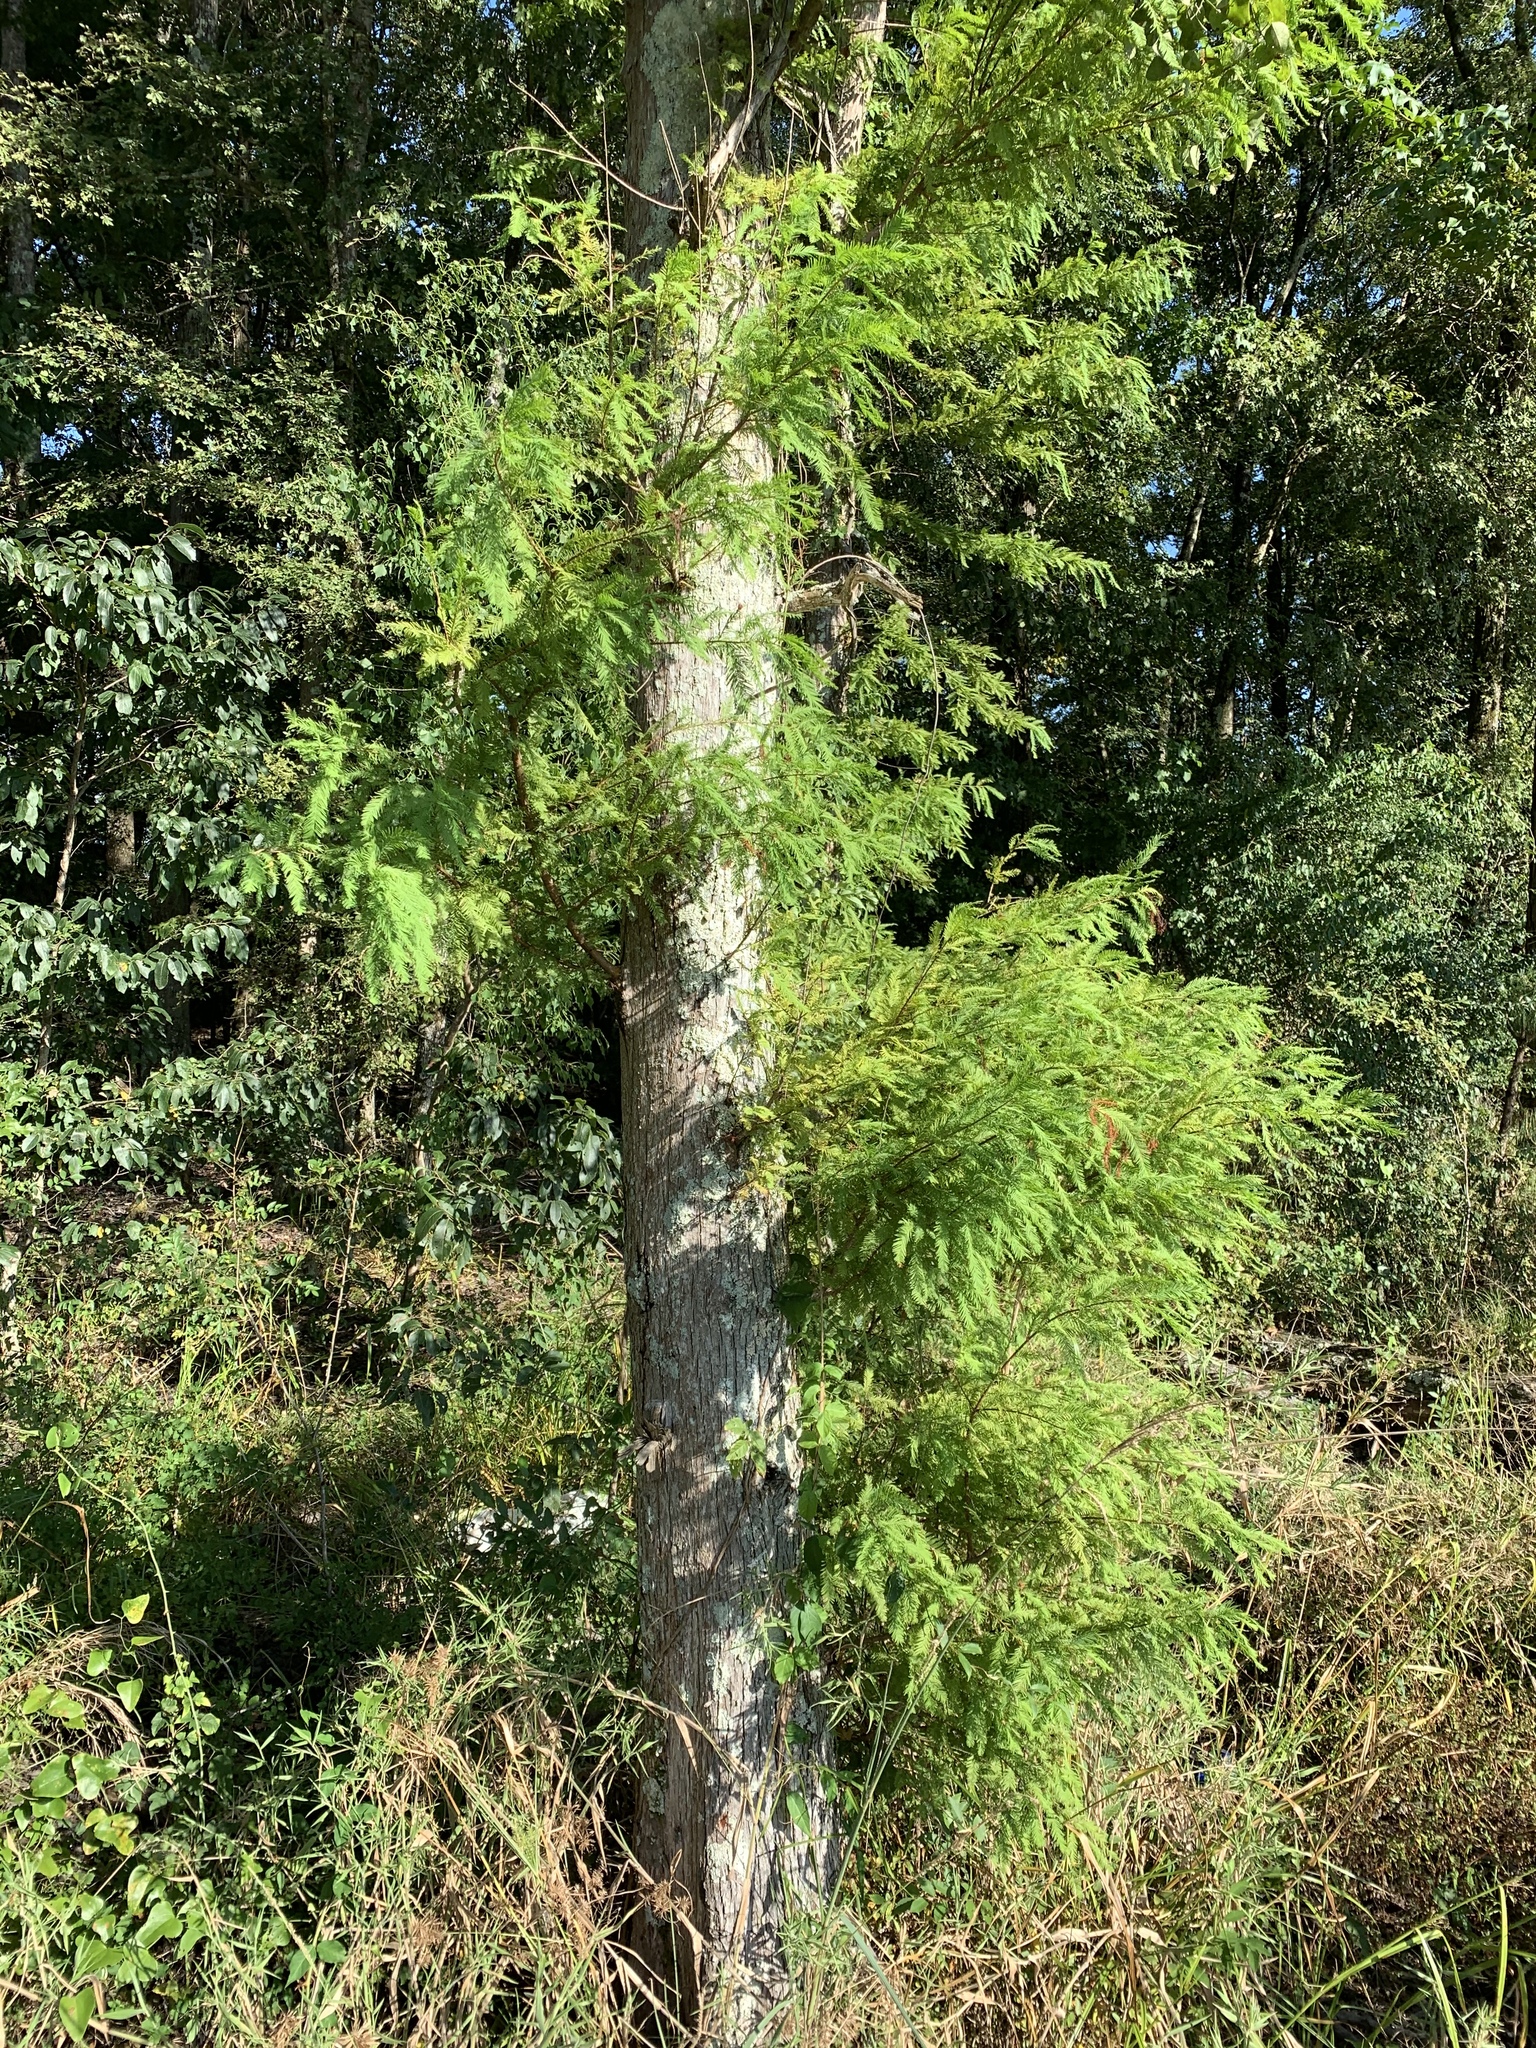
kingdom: Plantae
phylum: Tracheophyta
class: Pinopsida
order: Pinales
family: Cupressaceae
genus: Taxodium
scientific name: Taxodium distichum
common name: Bald cypress
